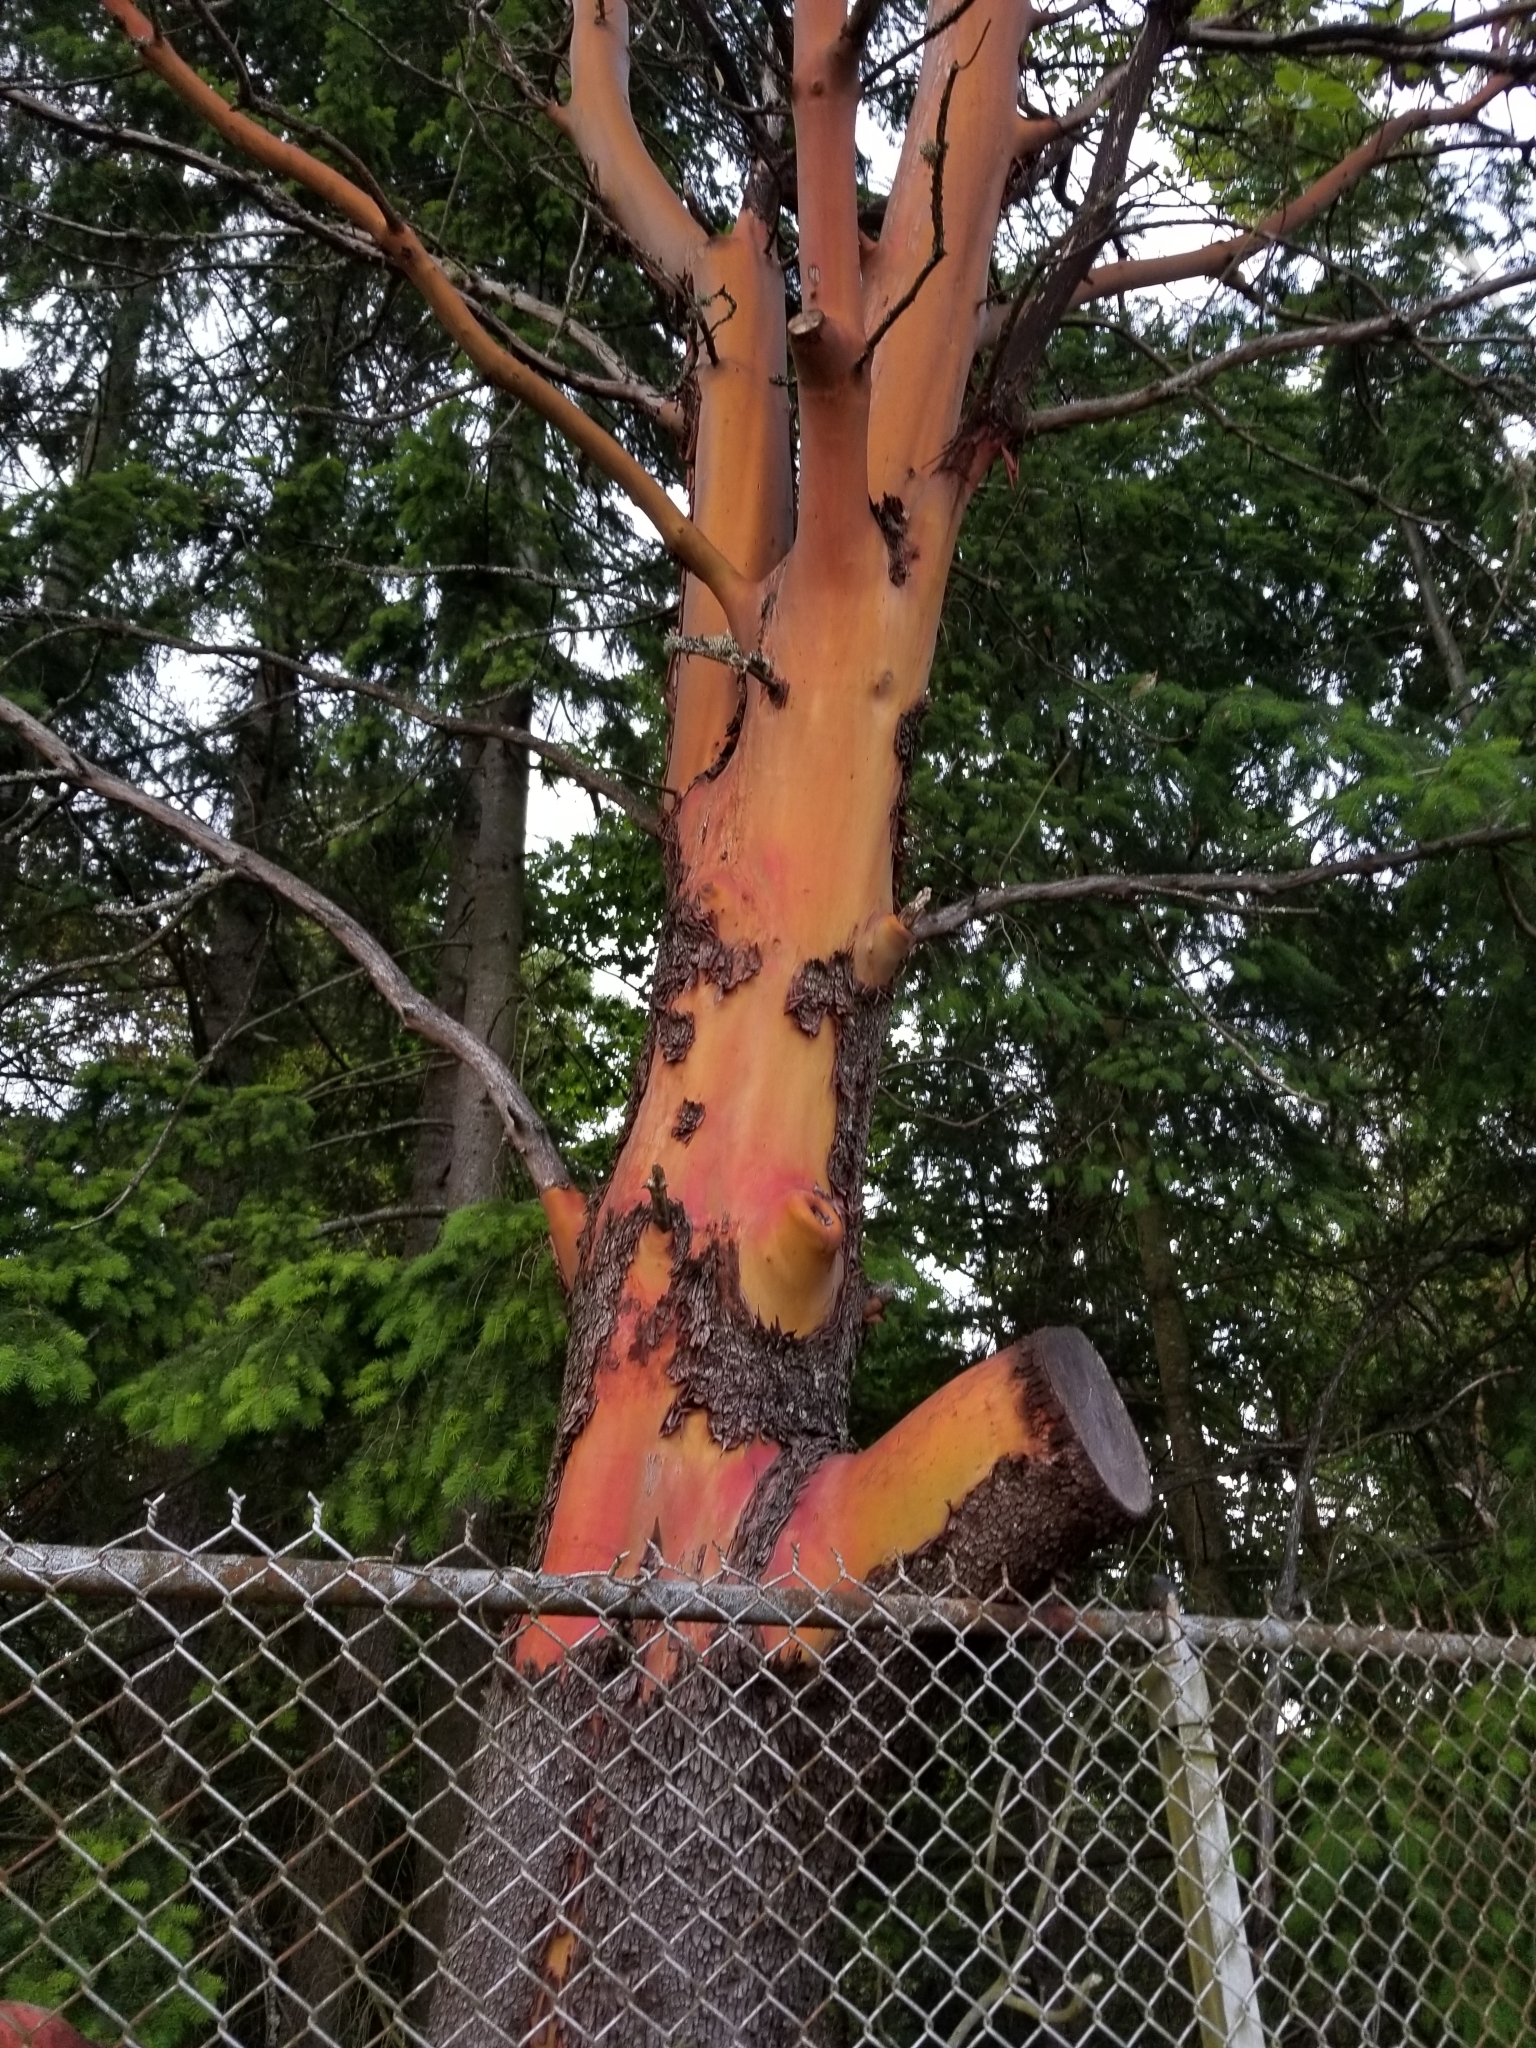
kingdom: Plantae
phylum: Tracheophyta
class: Magnoliopsida
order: Ericales
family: Ericaceae
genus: Arbutus
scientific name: Arbutus menziesii
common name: Pacific madrone
